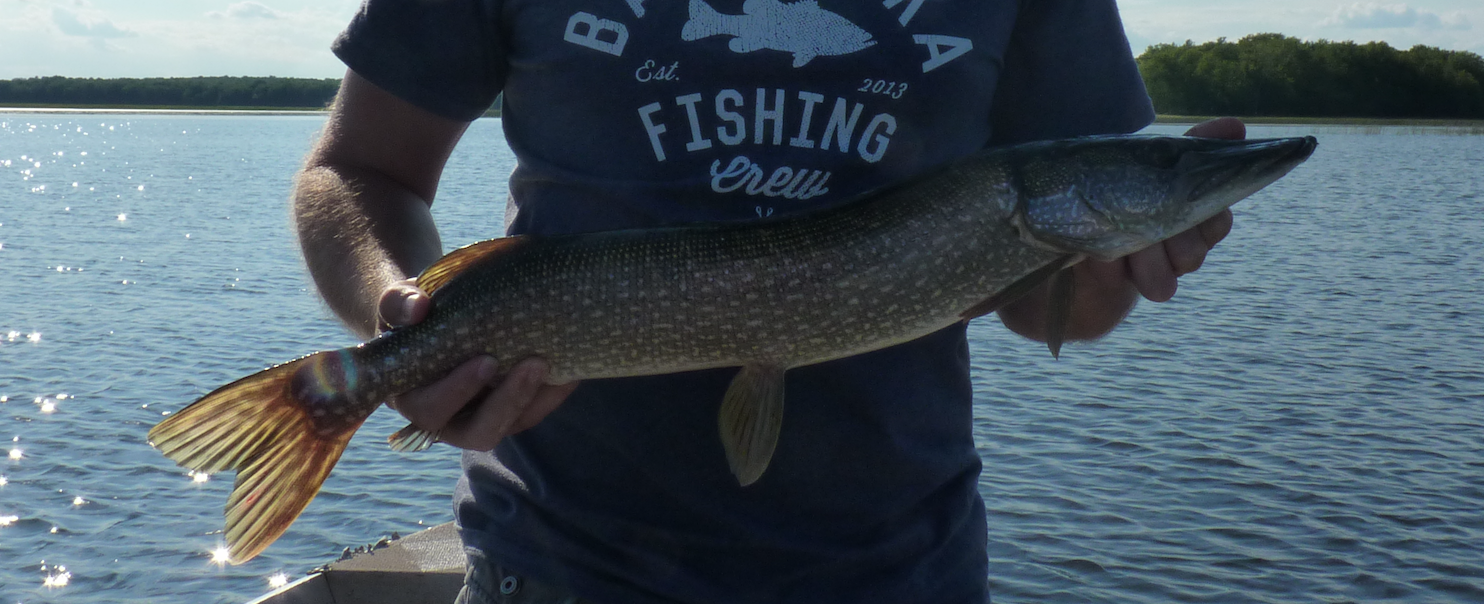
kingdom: Animalia
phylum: Chordata
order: Esociformes
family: Esocidae
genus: Esox
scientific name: Esox lucius
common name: Northern pike
